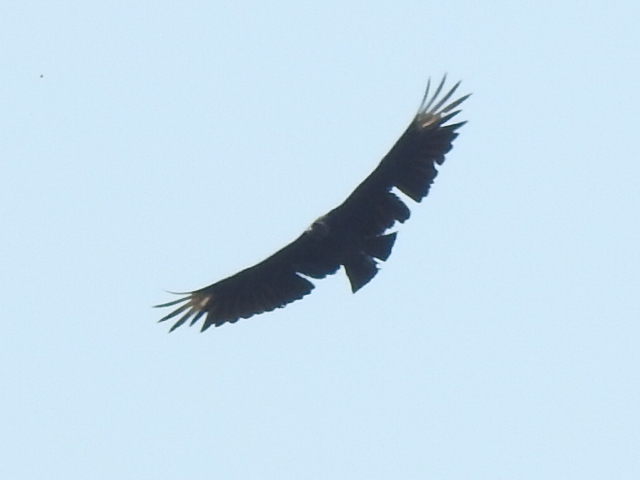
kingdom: Animalia
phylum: Chordata
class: Aves
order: Accipitriformes
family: Cathartidae
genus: Coragyps
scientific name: Coragyps atratus
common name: Black vulture
